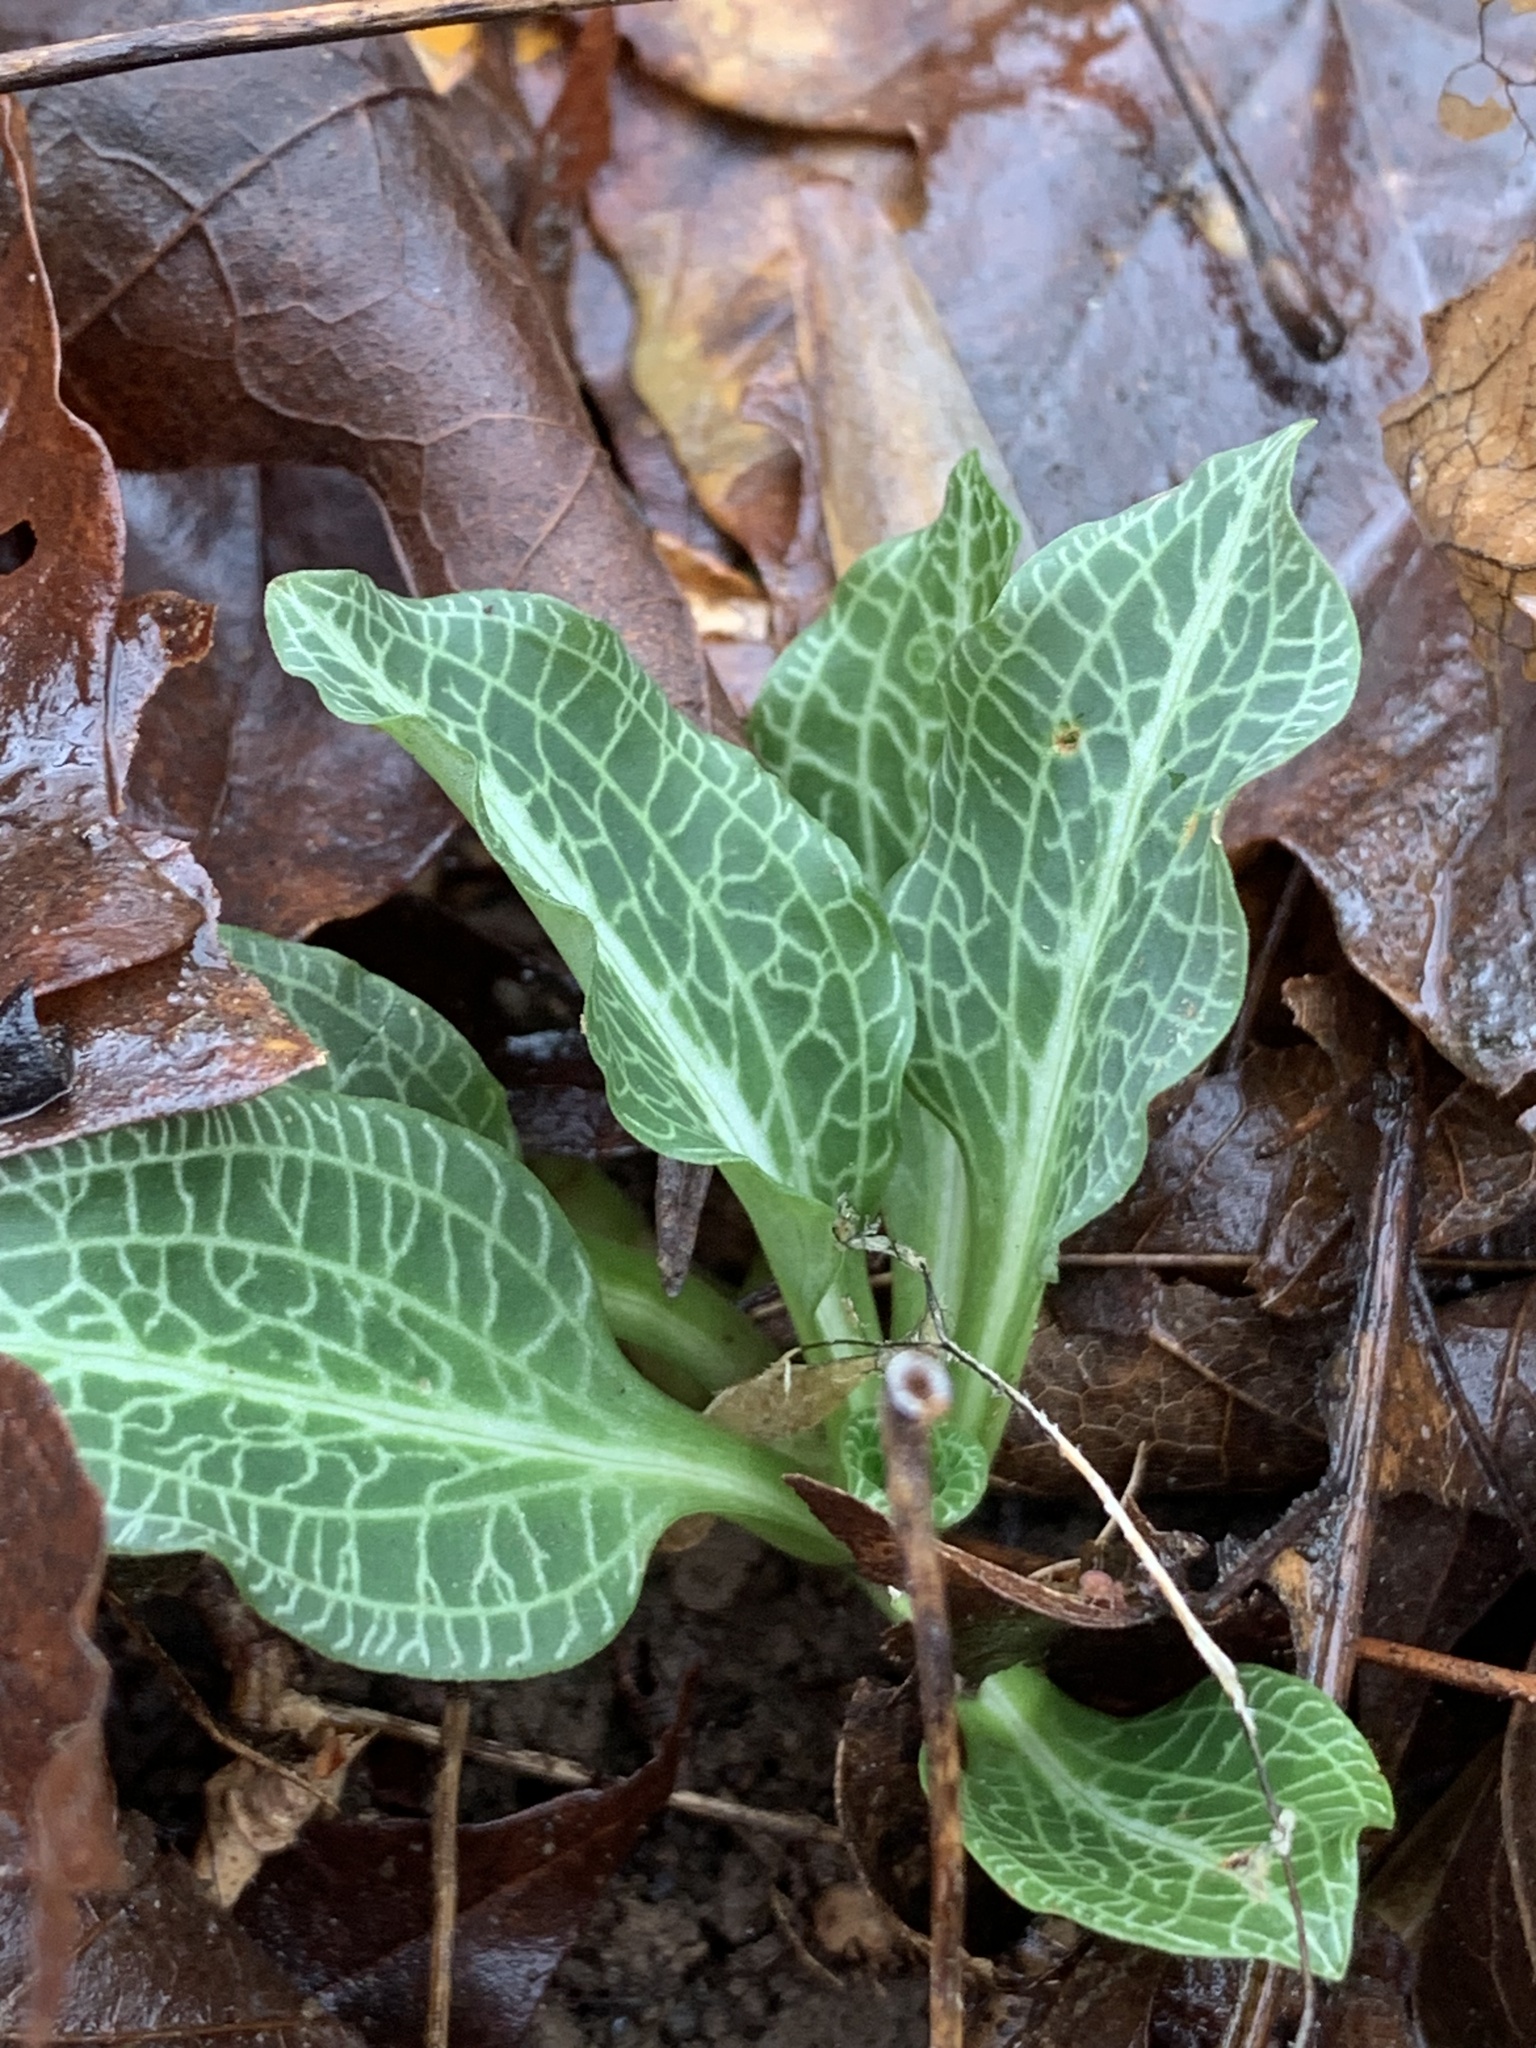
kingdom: Plantae
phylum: Tracheophyta
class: Liliopsida
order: Asparagales
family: Orchidaceae
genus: Goodyera
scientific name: Goodyera pubescens
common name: Downy rattlesnake-plantain
